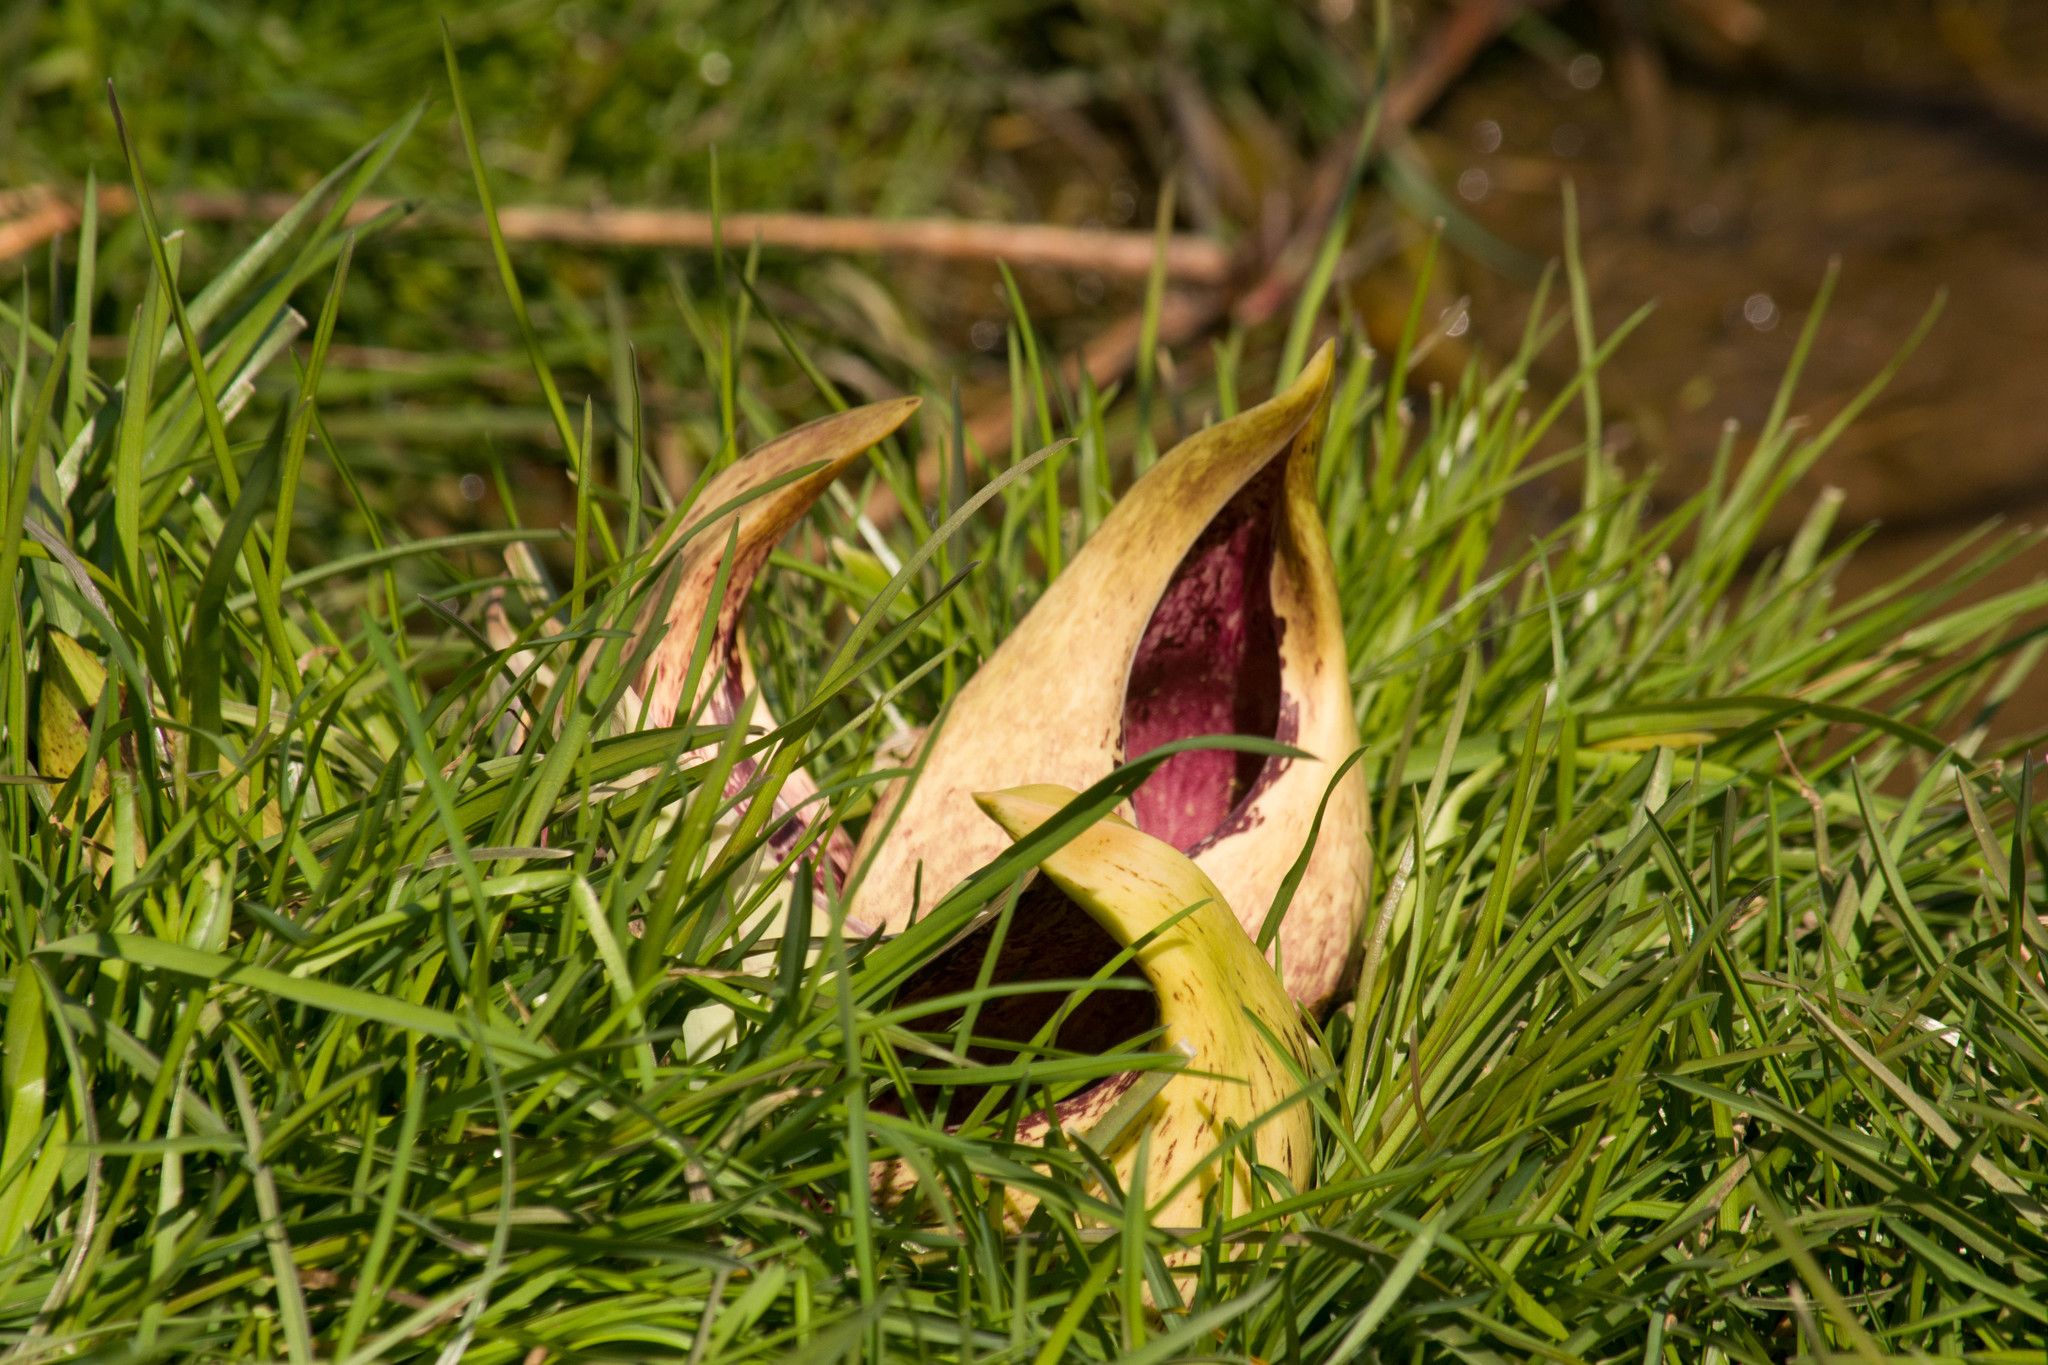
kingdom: Plantae
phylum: Tracheophyta
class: Liliopsida
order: Alismatales
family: Araceae
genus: Symplocarpus
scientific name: Symplocarpus foetidus
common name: Eastern skunk cabbage
